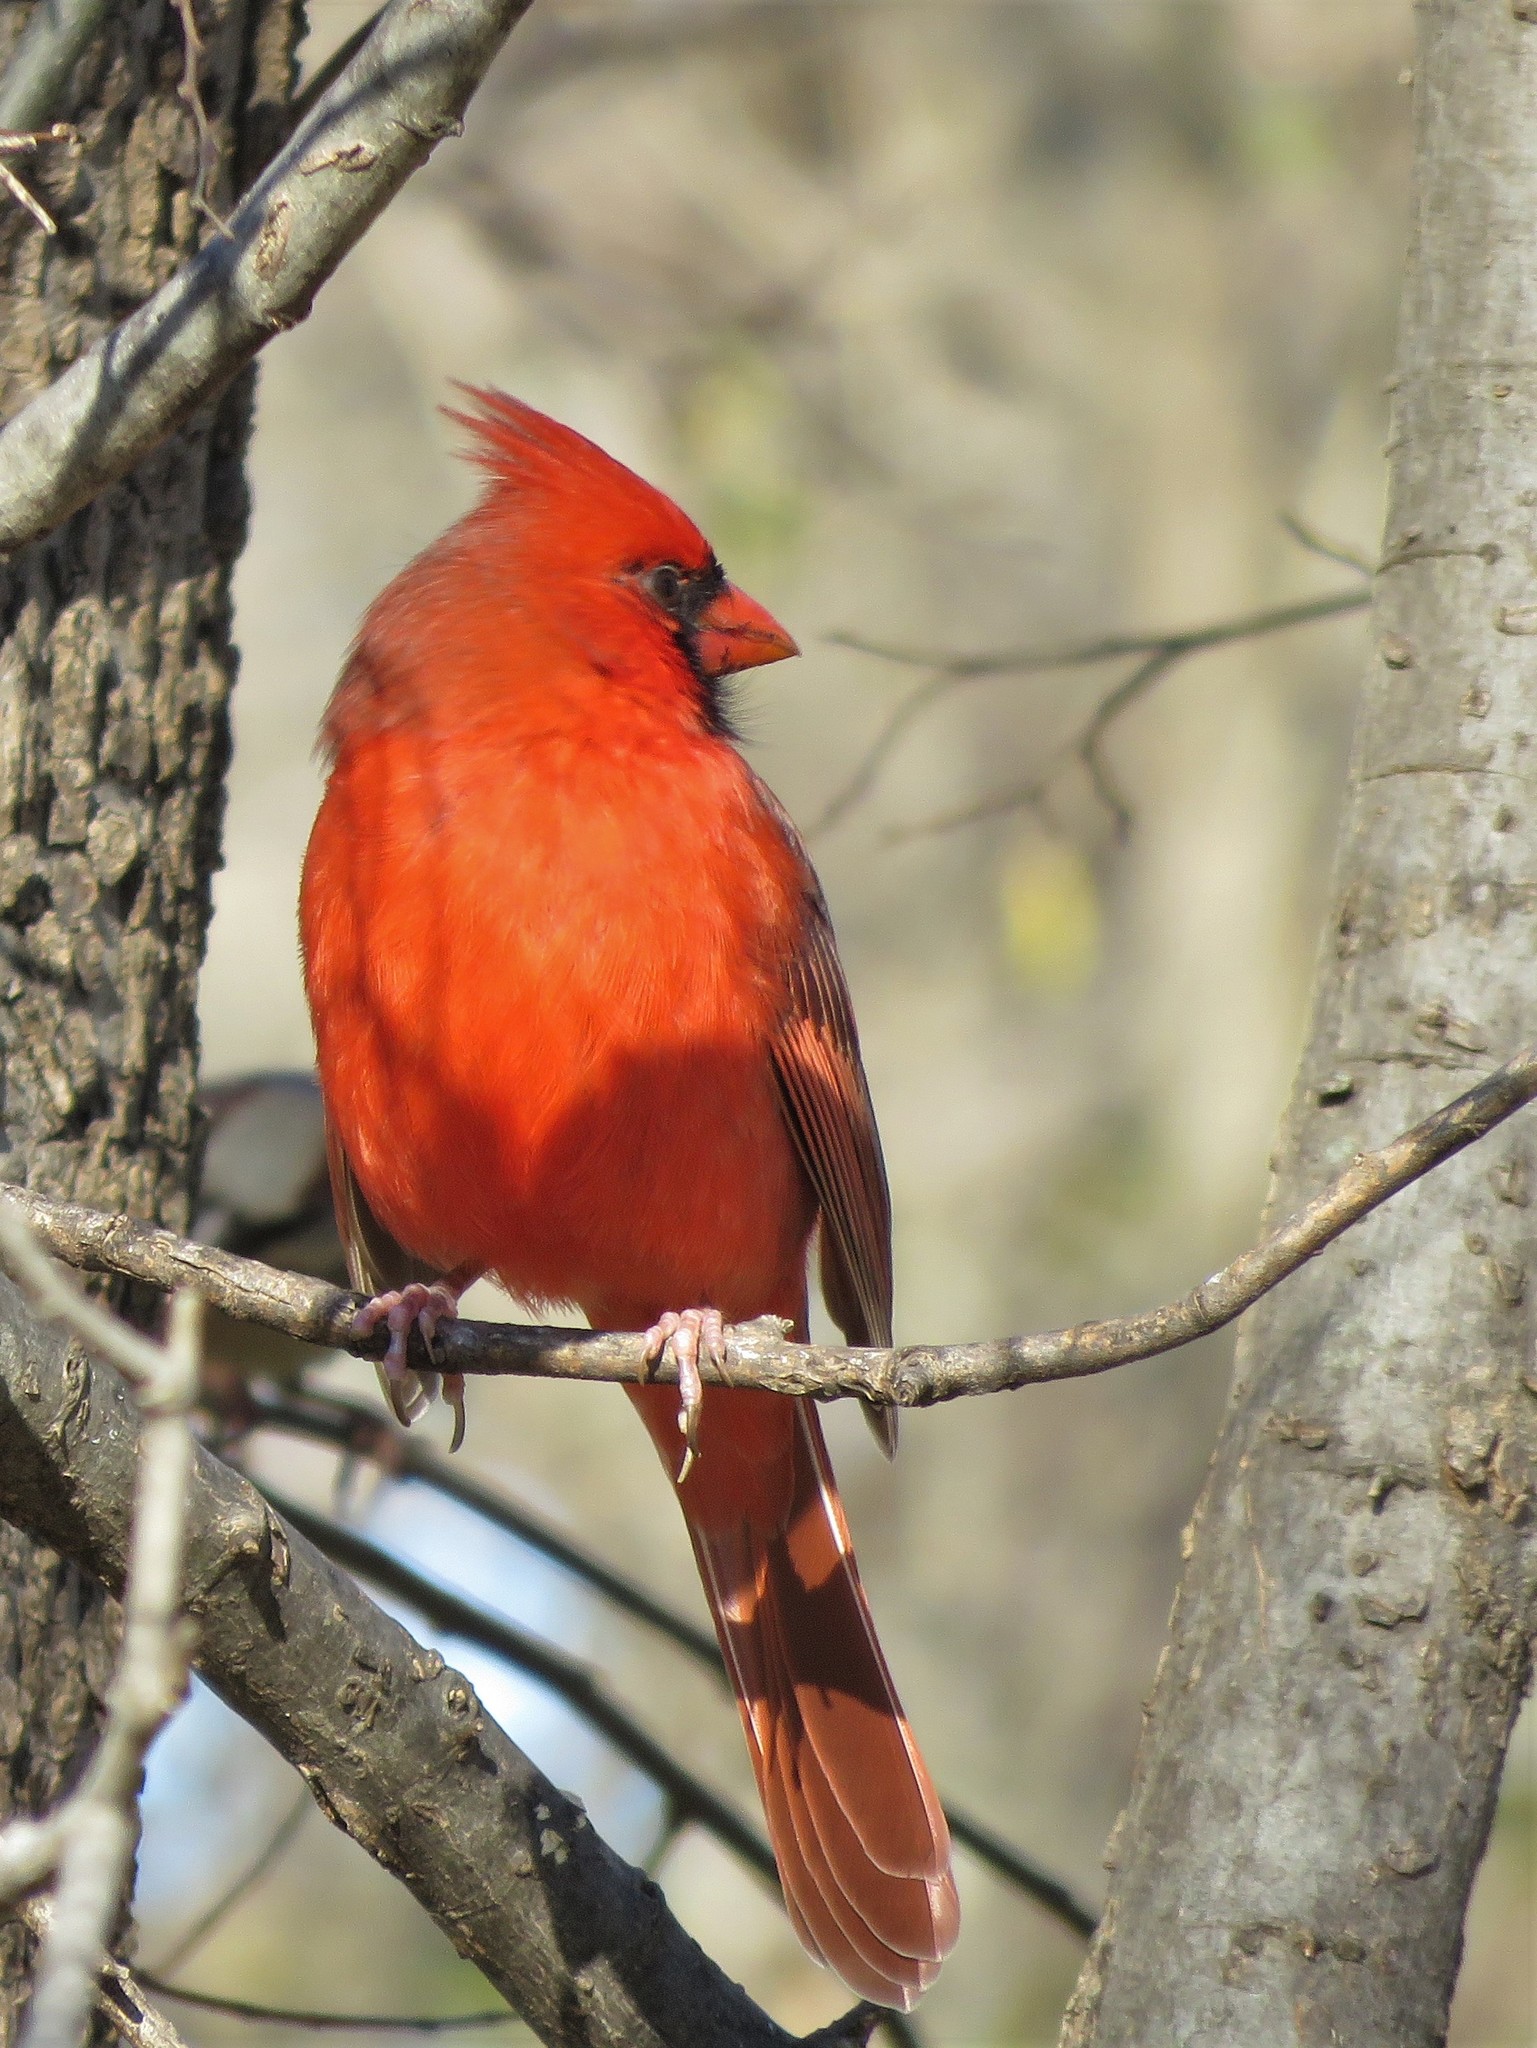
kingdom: Animalia
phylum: Chordata
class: Aves
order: Passeriformes
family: Cardinalidae
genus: Cardinalis
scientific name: Cardinalis cardinalis
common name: Northern cardinal
